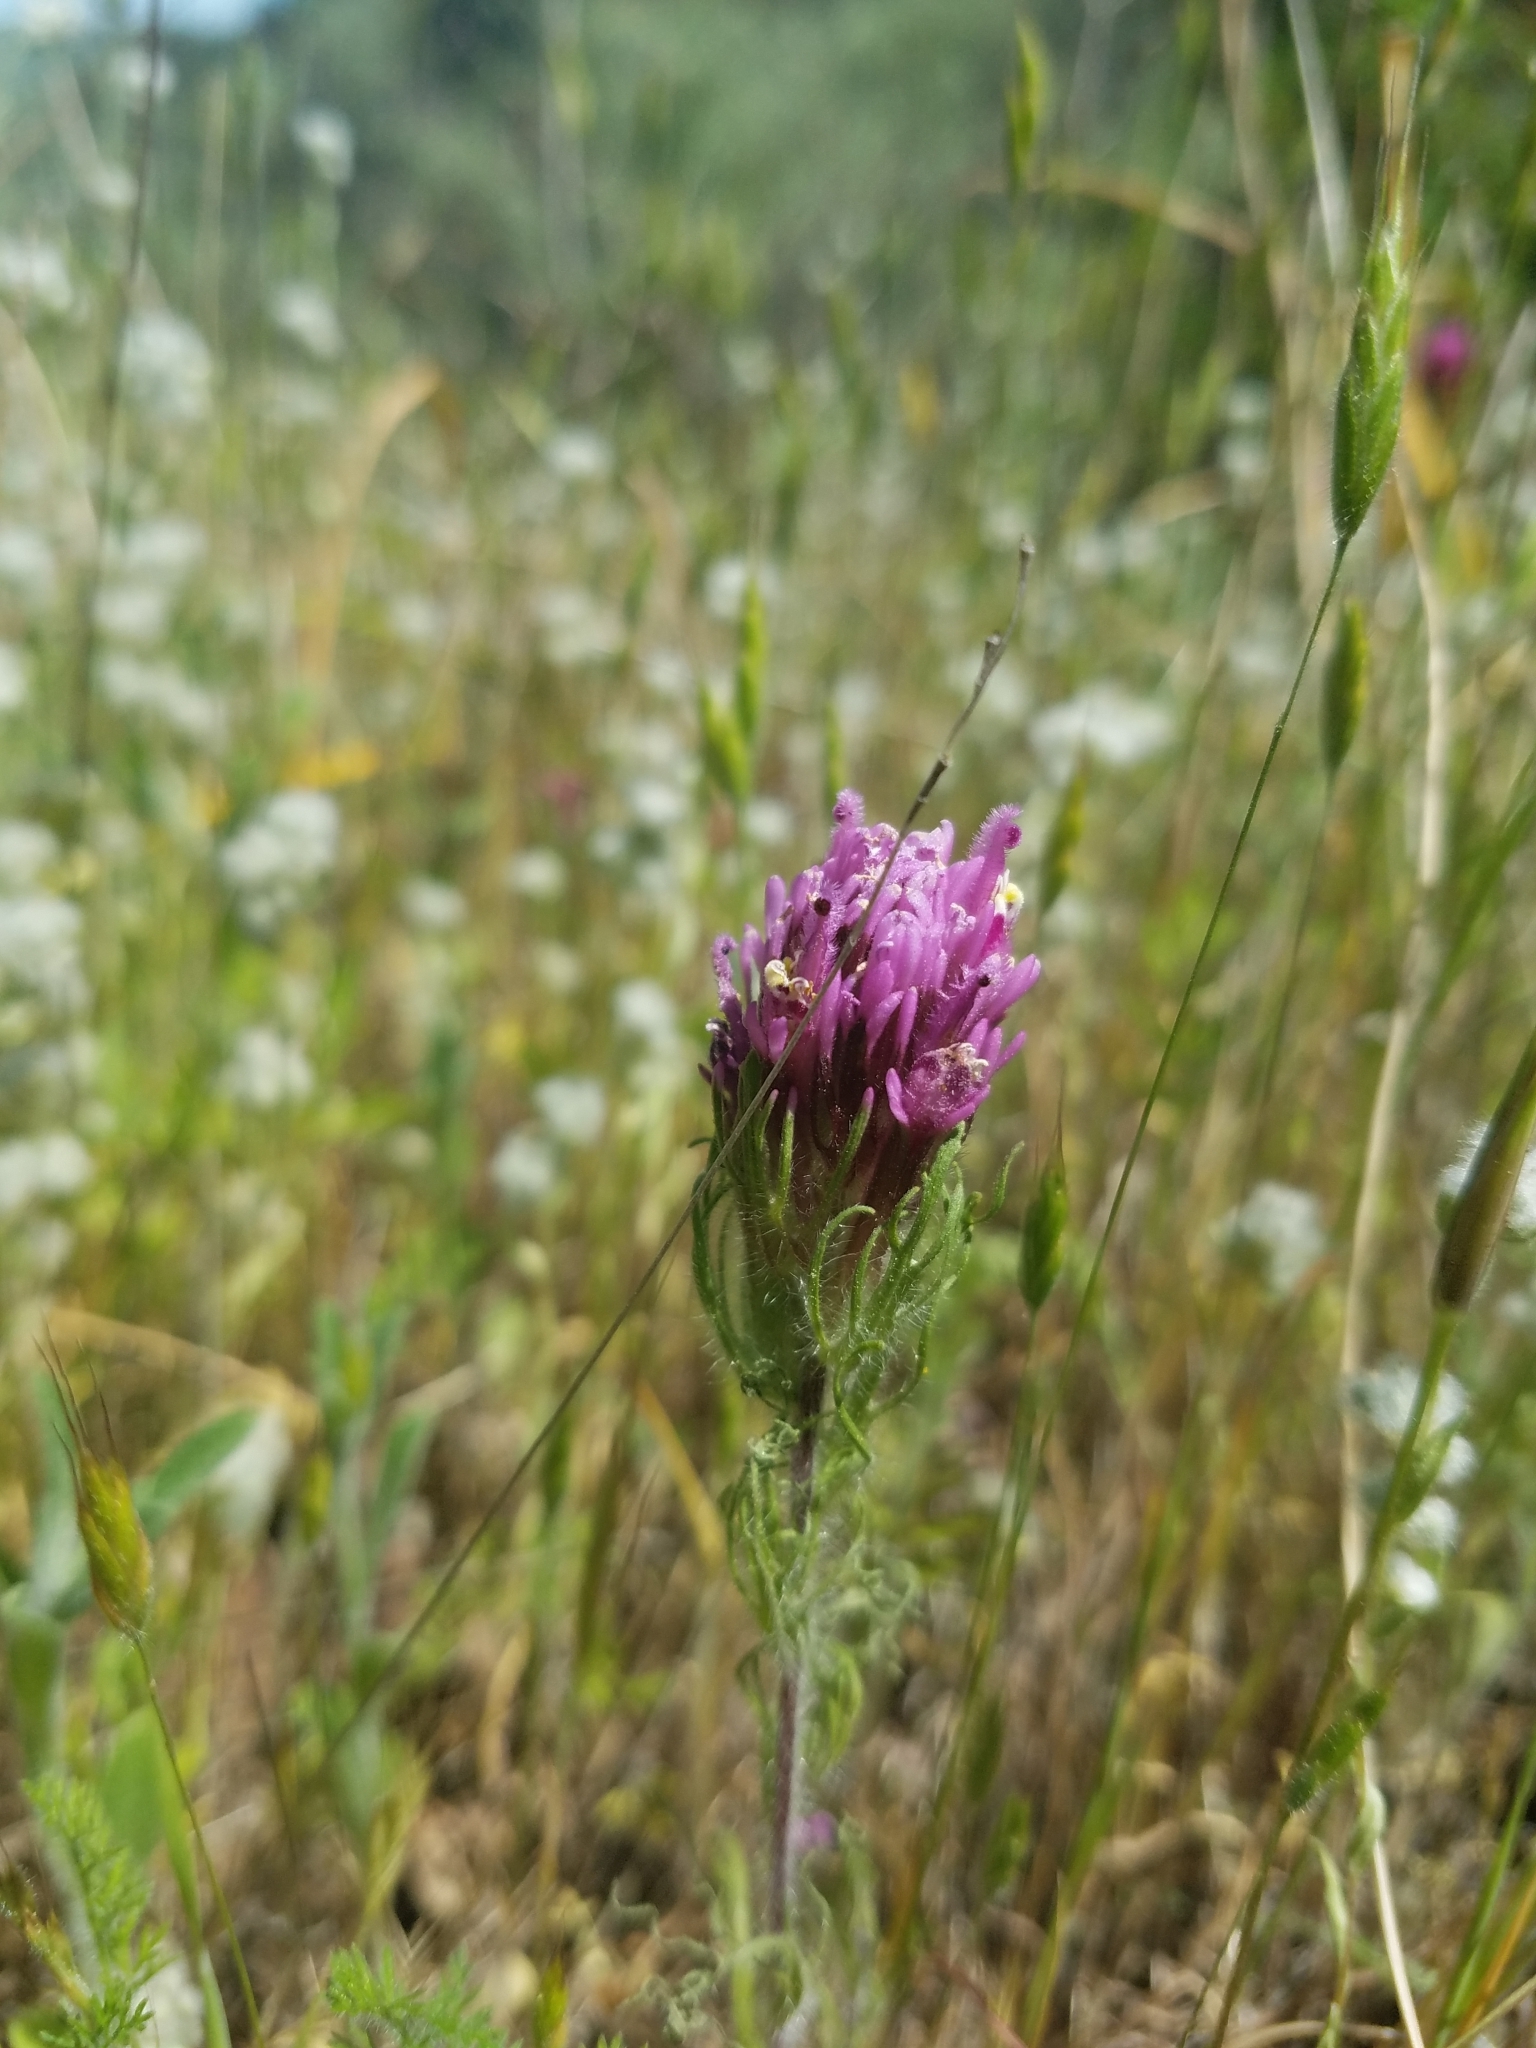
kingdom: Plantae
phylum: Tracheophyta
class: Magnoliopsida
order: Lamiales
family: Orobanchaceae
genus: Castilleja
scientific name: Castilleja exserta
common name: Purple owl-clover
